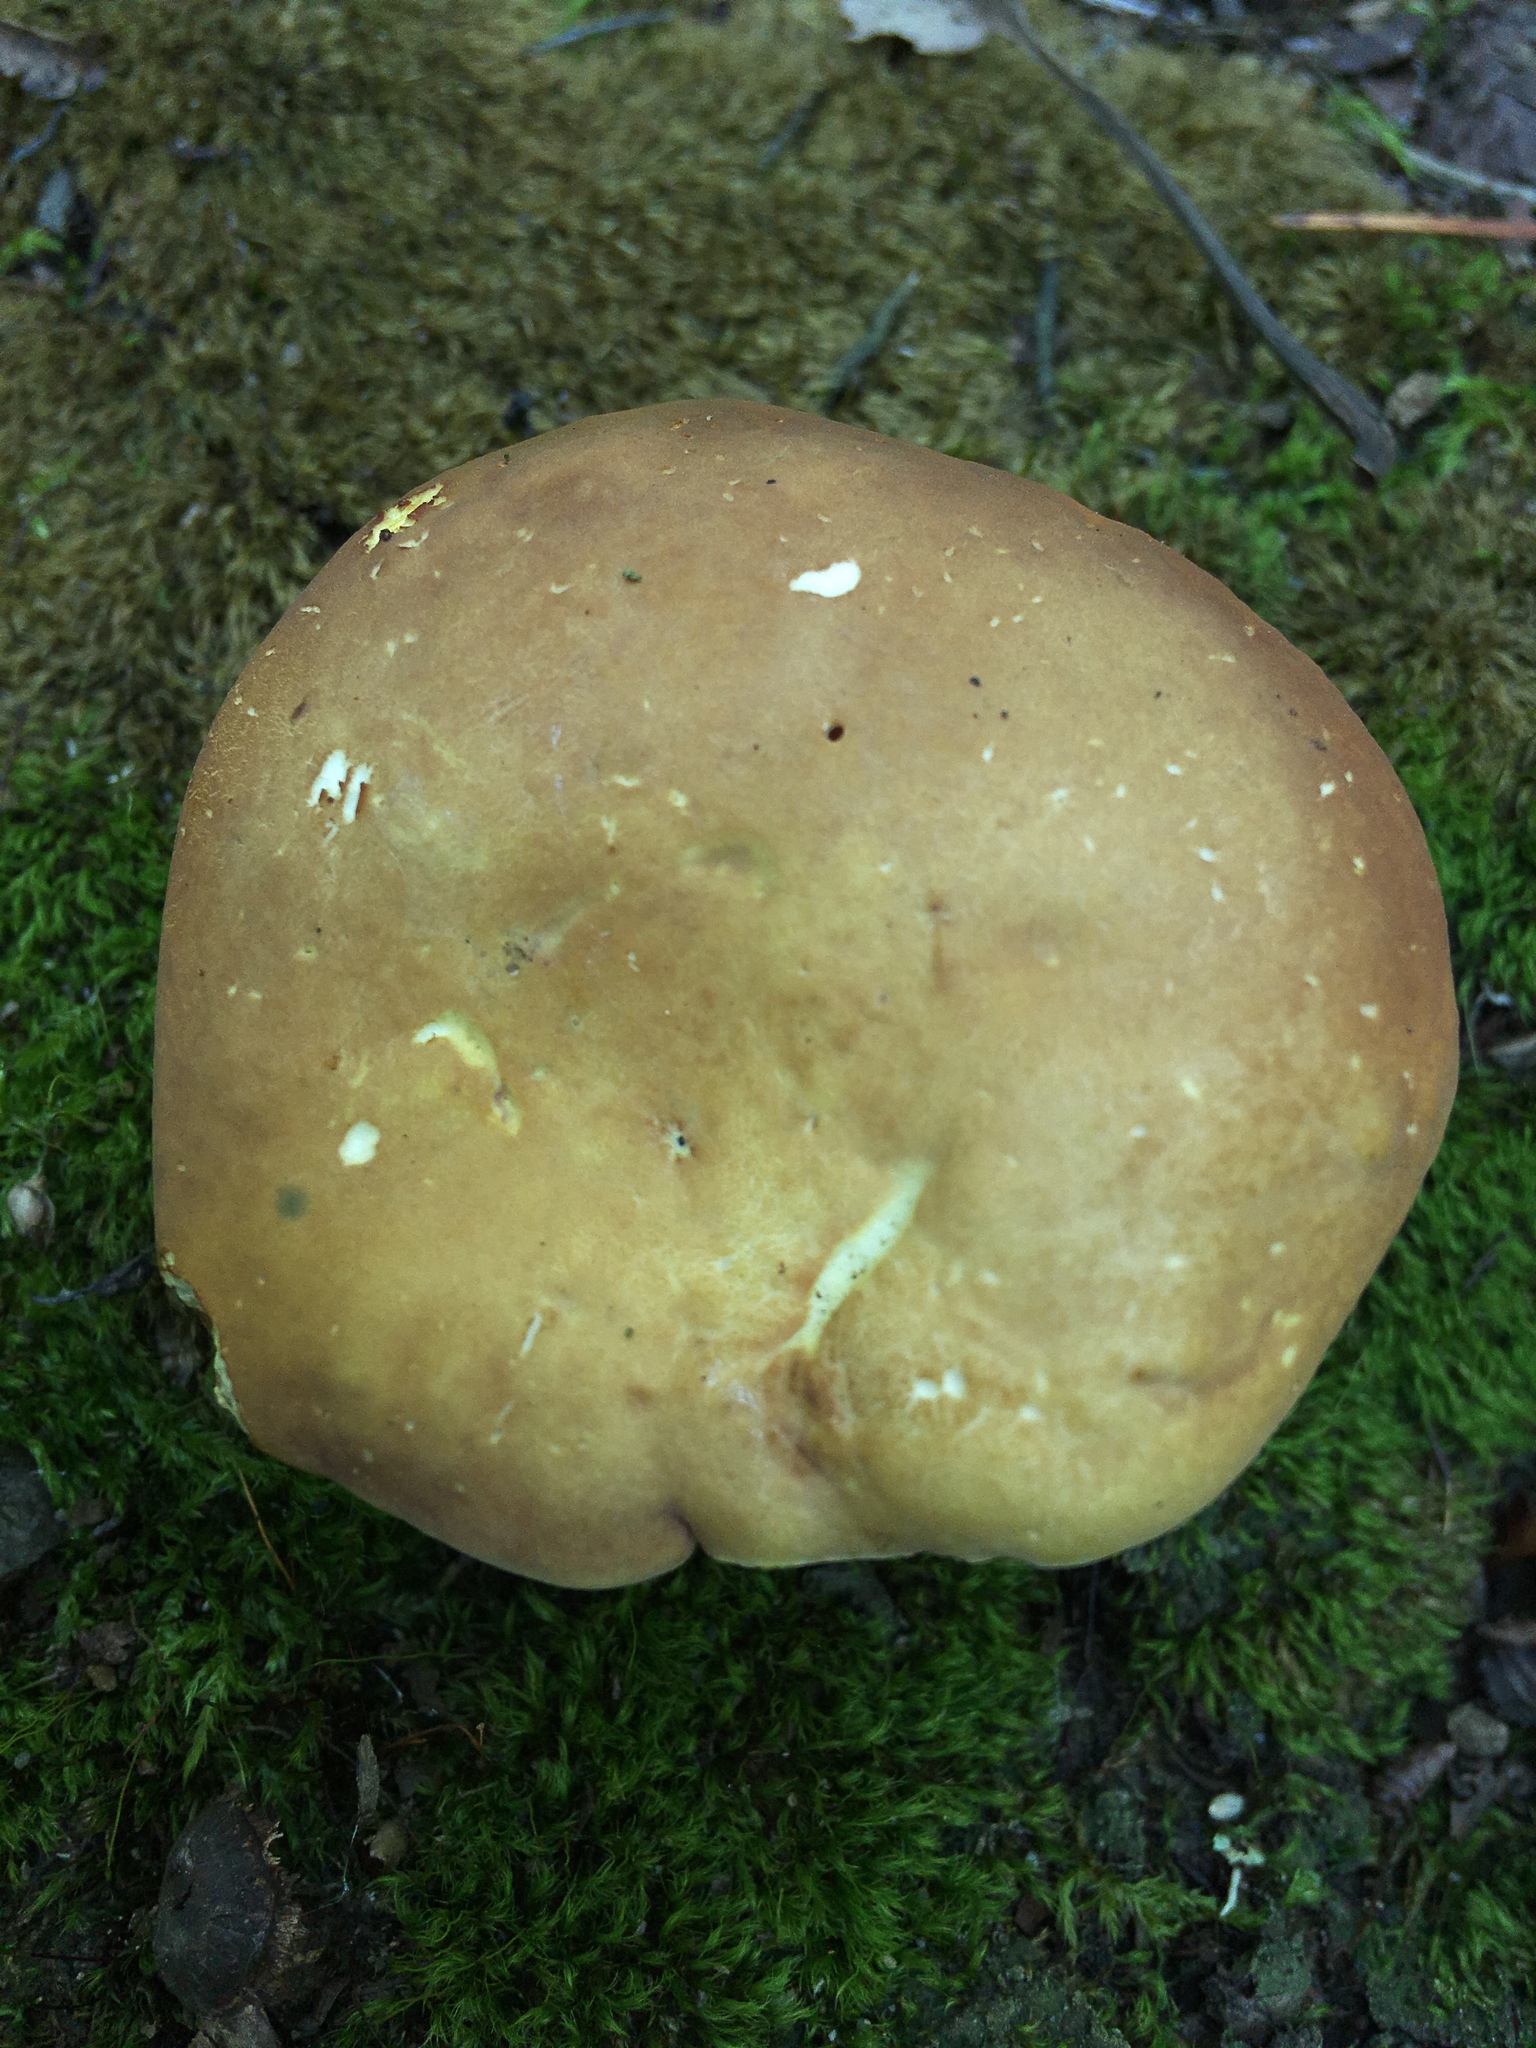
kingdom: Fungi
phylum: Basidiomycota
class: Agaricomycetes
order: Boletales
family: Boletaceae
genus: Xanthoconium
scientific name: Xanthoconium affine
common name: Spotted bolete
